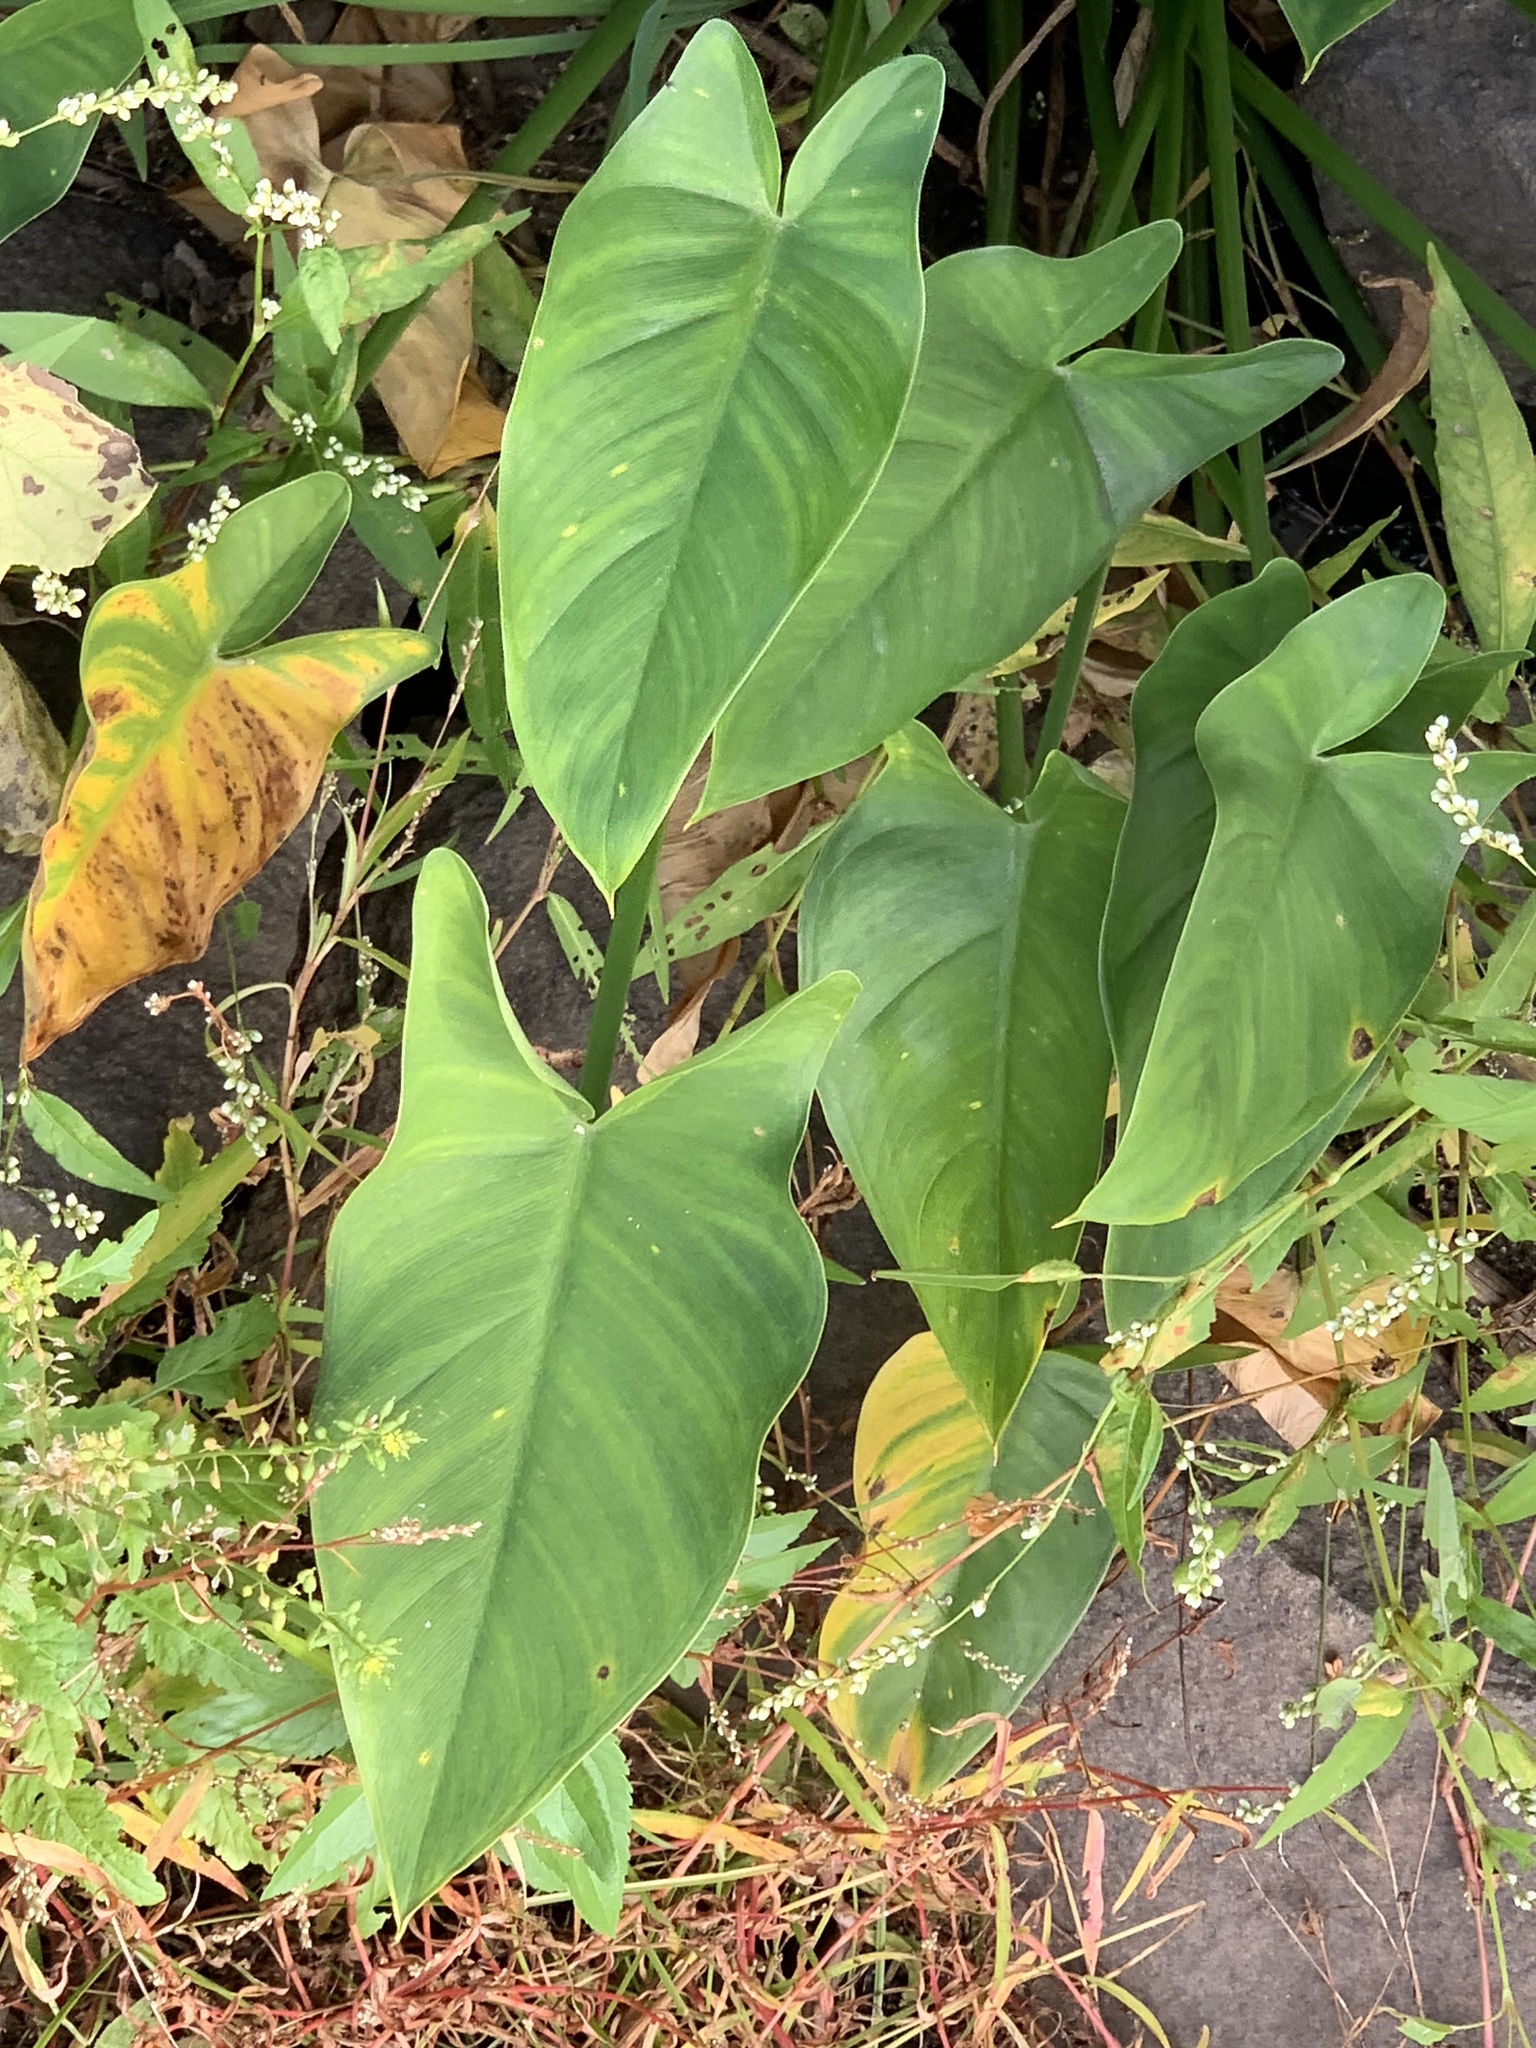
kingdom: Plantae
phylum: Tracheophyta
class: Liliopsida
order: Alismatales
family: Araceae
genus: Peltandra
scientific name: Peltandra virginica
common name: Arrow arum
